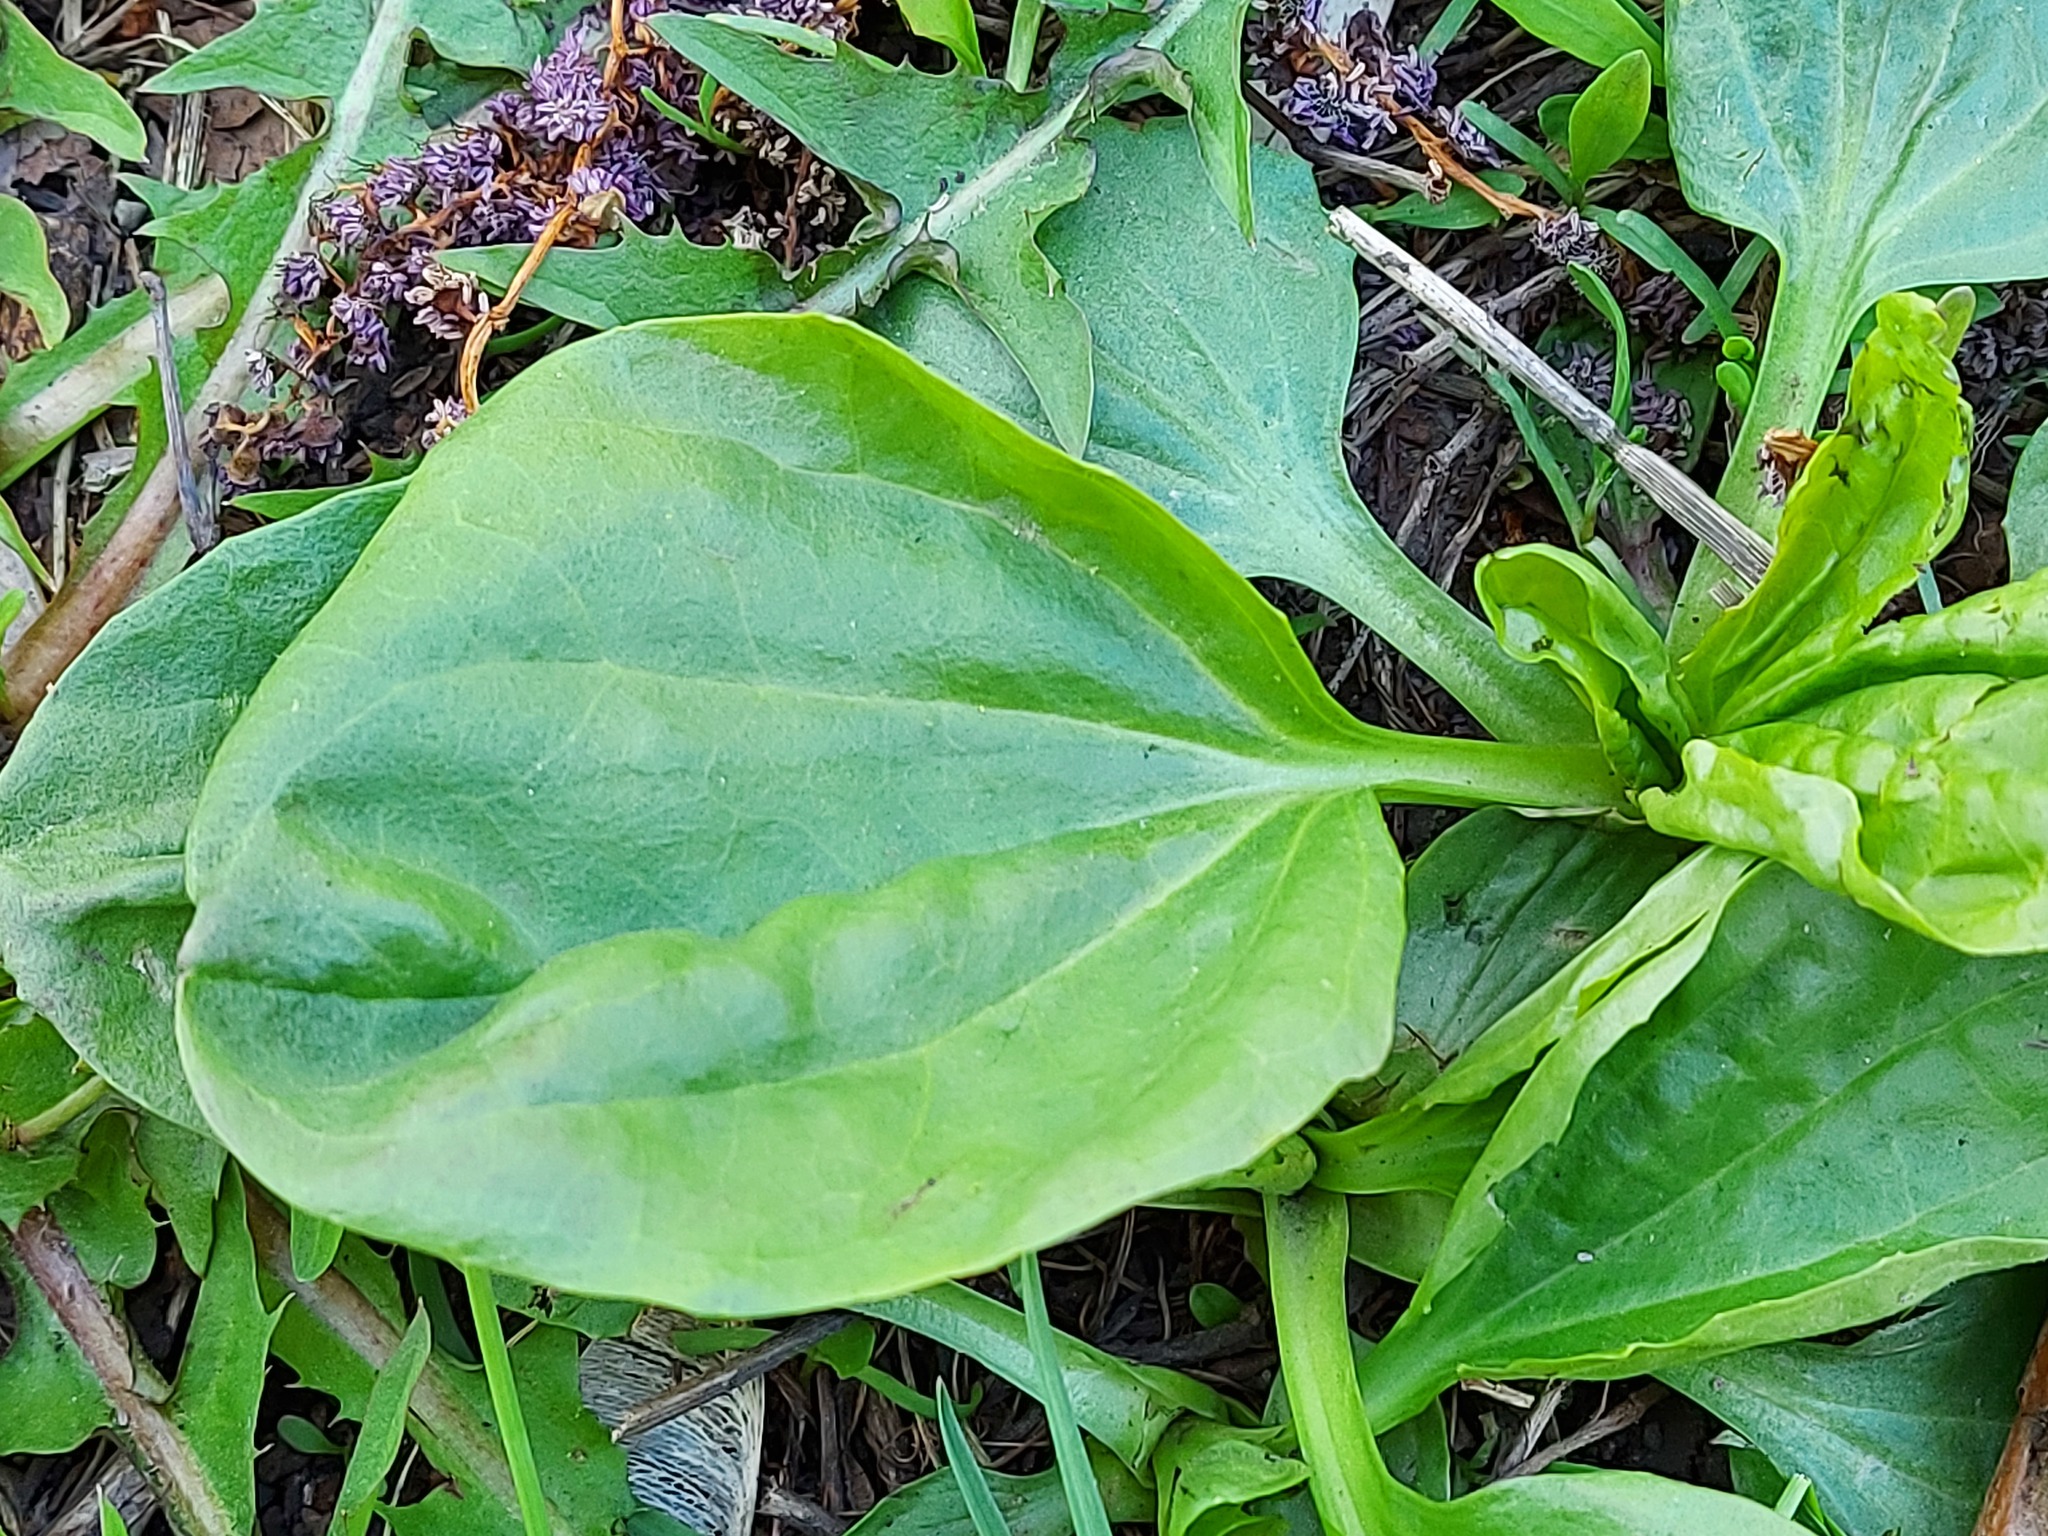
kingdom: Plantae
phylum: Tracheophyta
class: Magnoliopsida
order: Lamiales
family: Plantaginaceae
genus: Plantago
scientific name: Plantago major
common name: Common plantain
